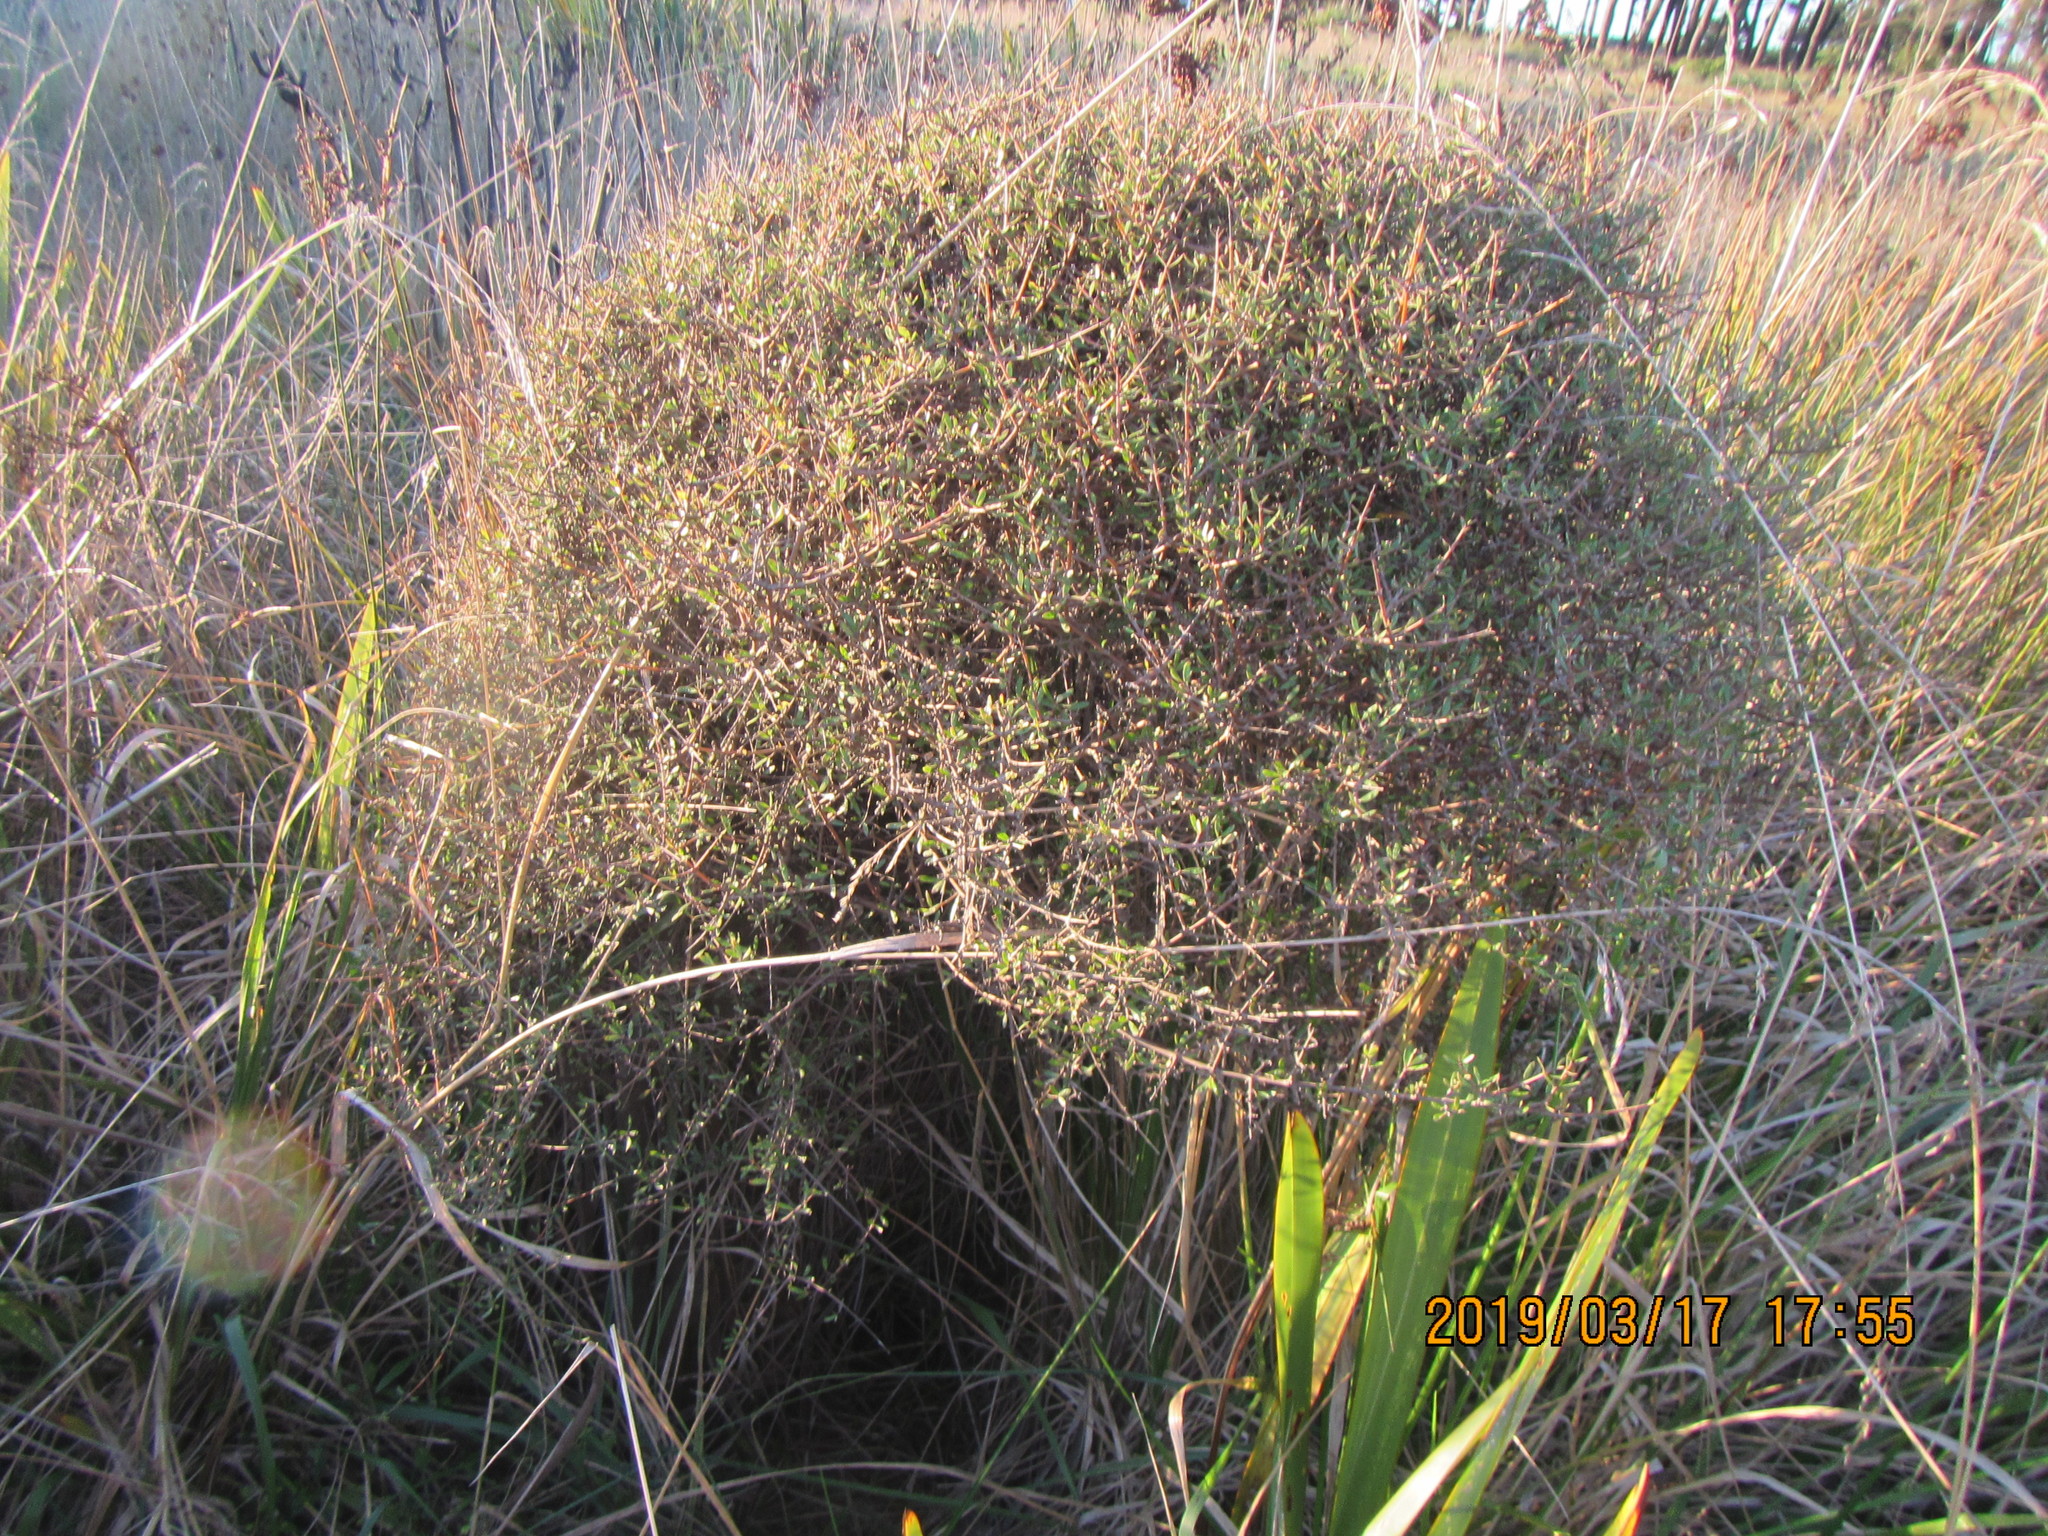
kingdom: Plantae
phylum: Tracheophyta
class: Magnoliopsida
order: Gentianales
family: Rubiaceae
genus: Coprosma
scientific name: Coprosma propinqua
